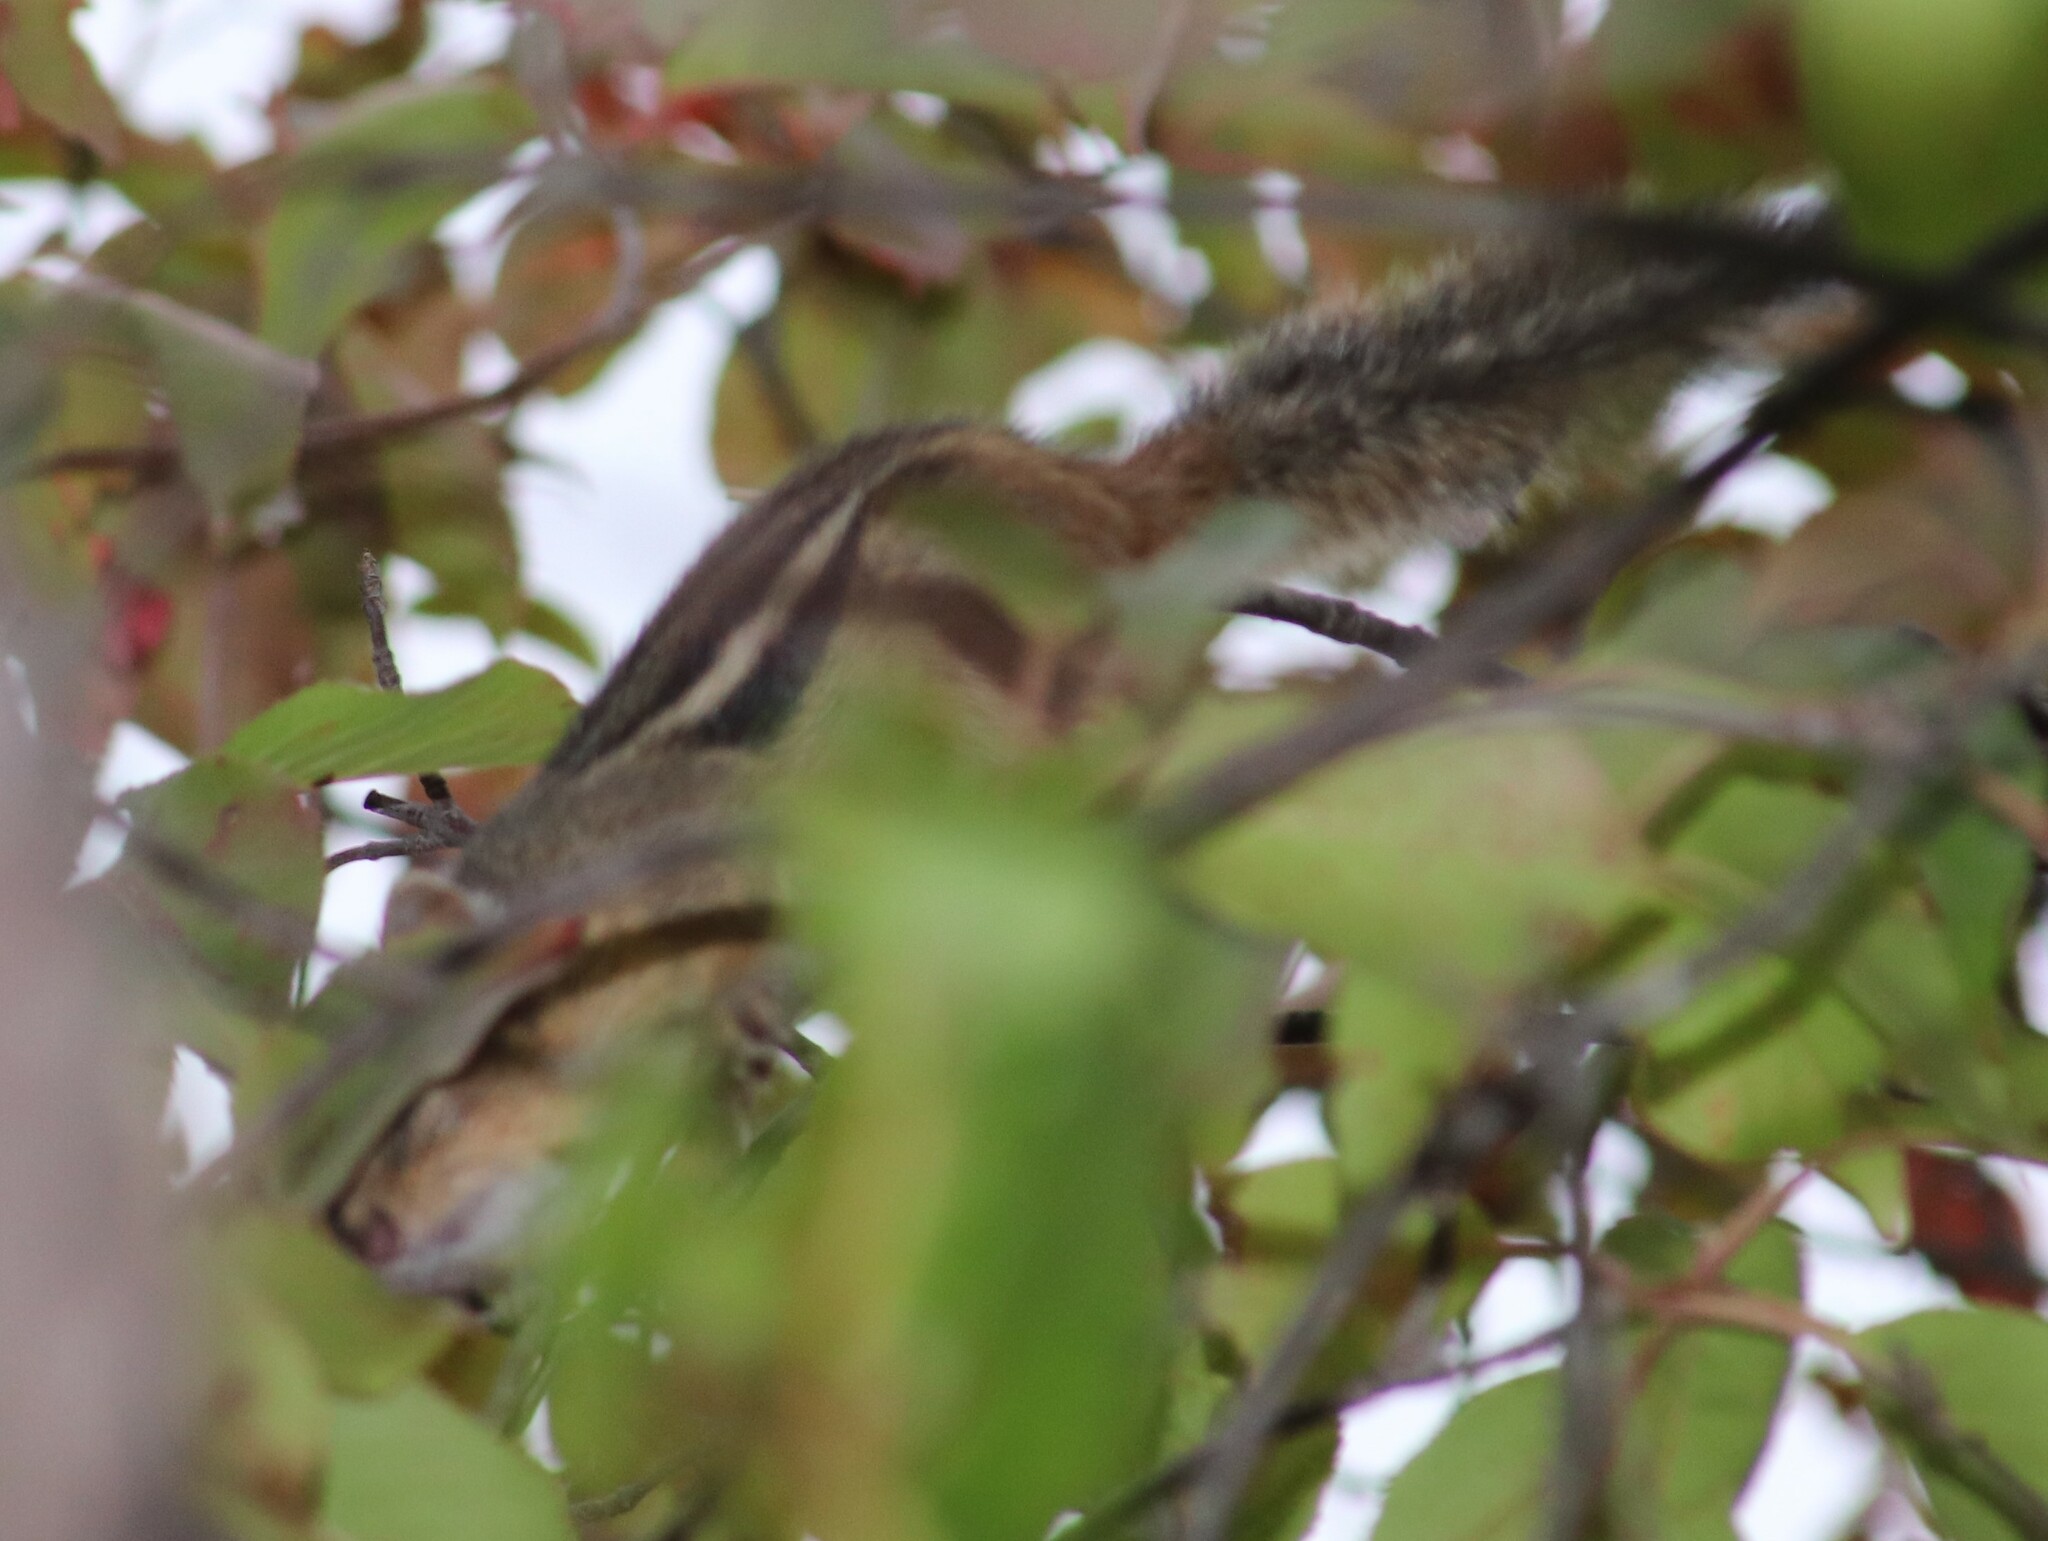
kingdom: Animalia
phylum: Chordata
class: Mammalia
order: Rodentia
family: Sciuridae
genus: Tamias
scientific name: Tamias striatus
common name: Eastern chipmunk
